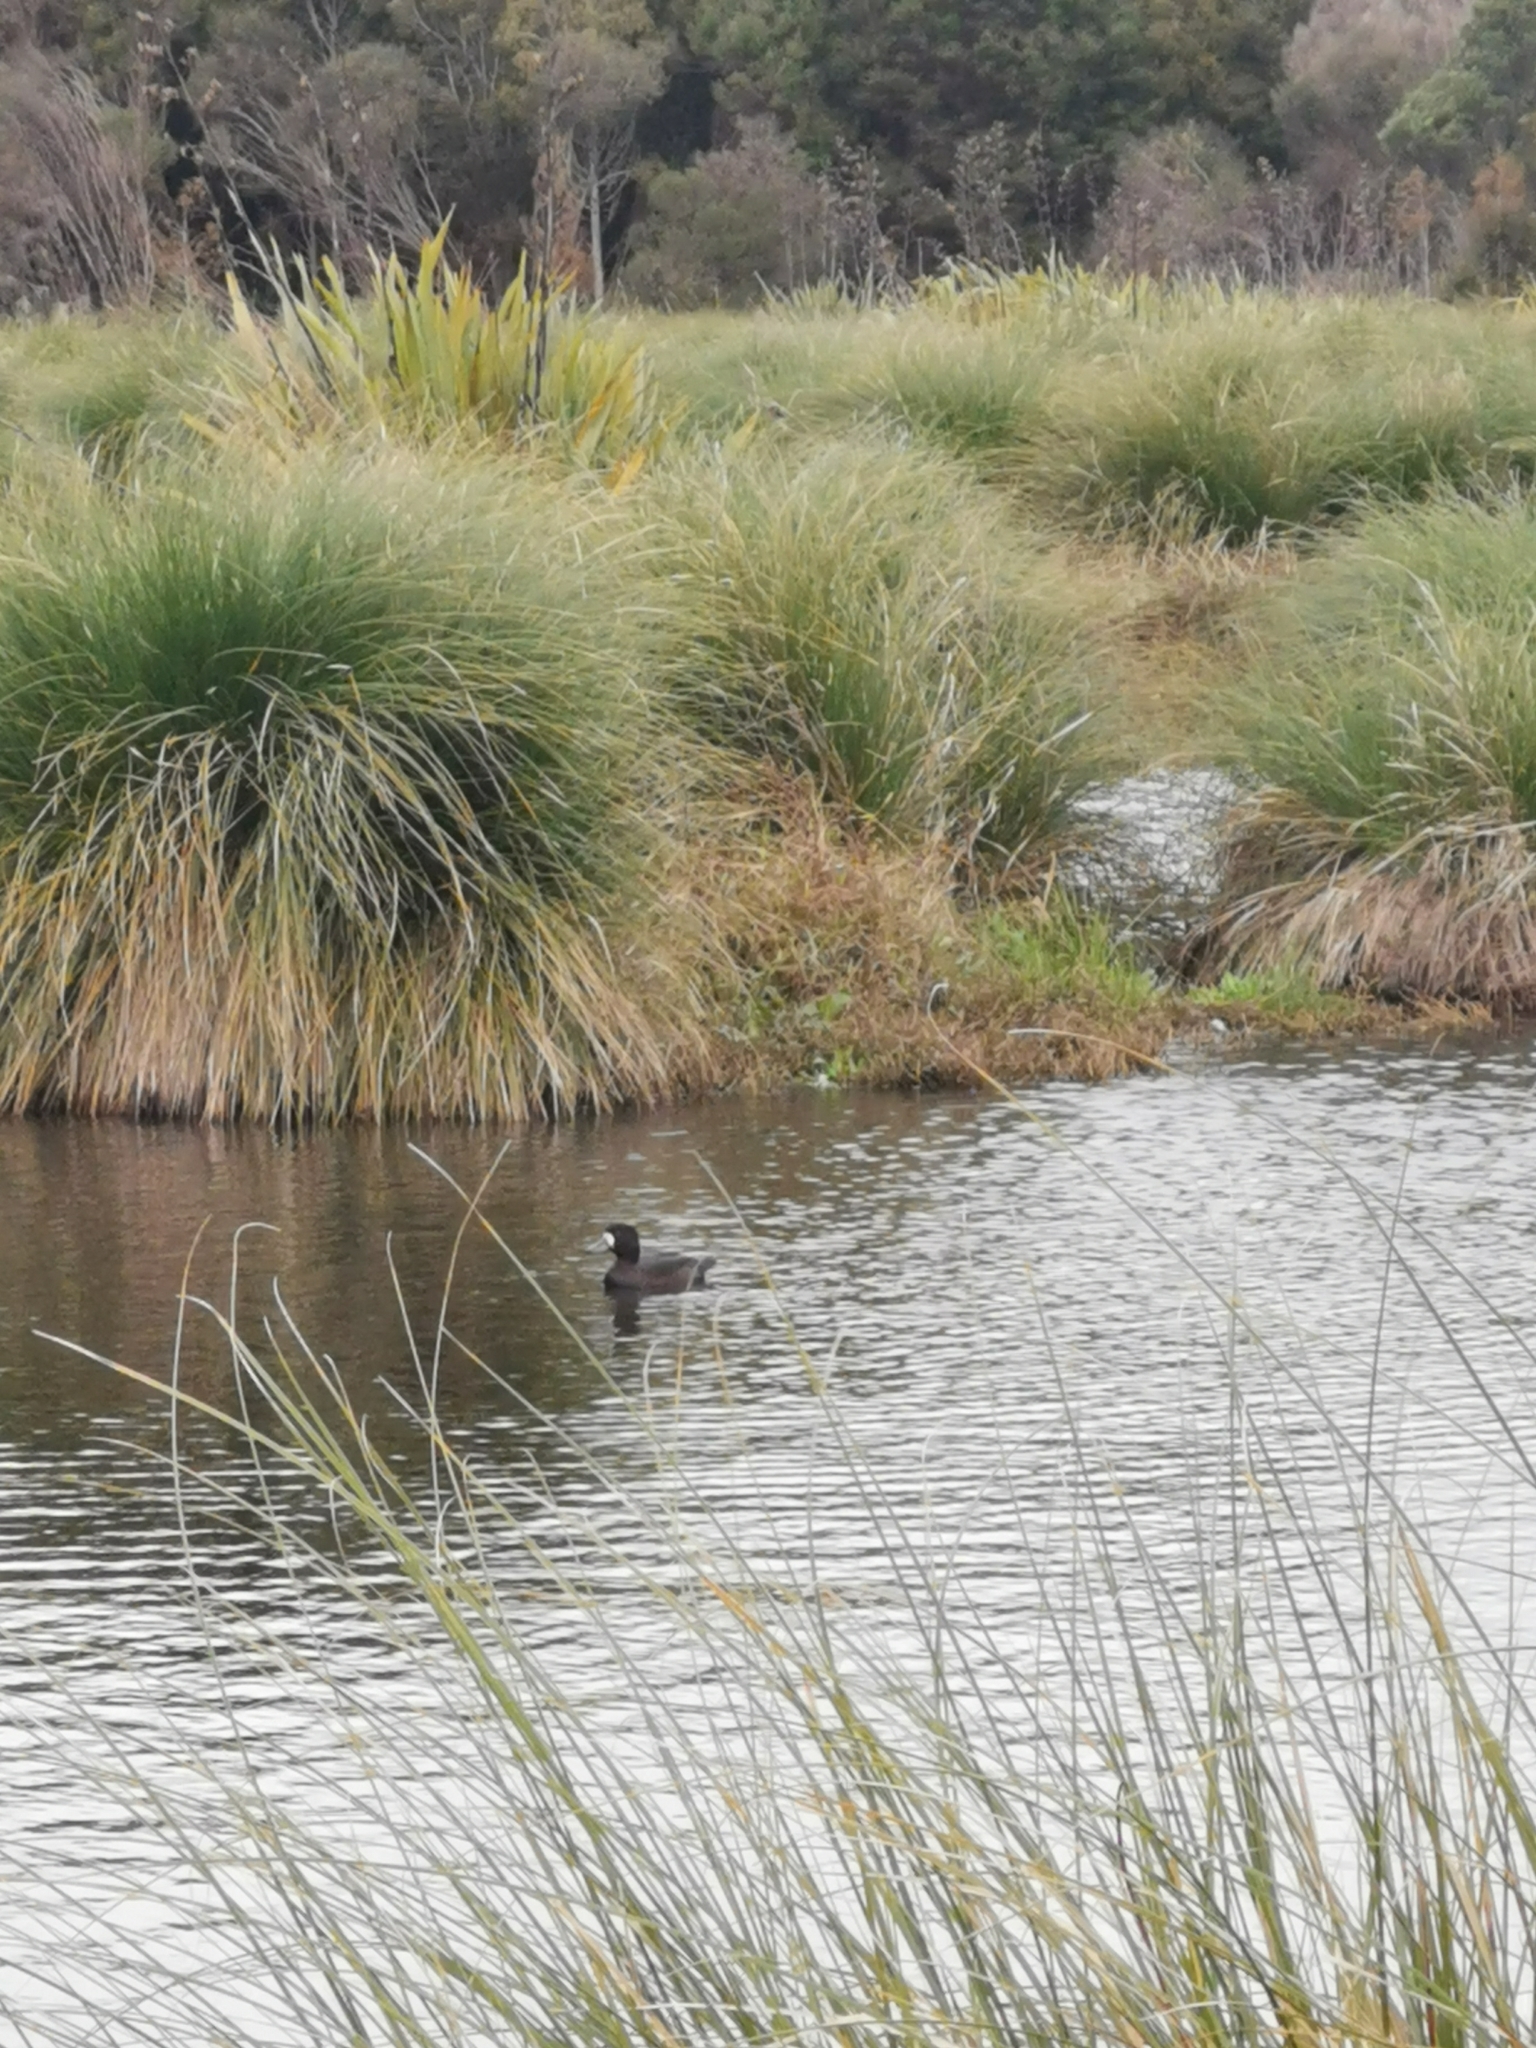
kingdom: Animalia
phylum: Chordata
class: Aves
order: Anseriformes
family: Anatidae
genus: Aythya
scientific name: Aythya novaeseelandiae
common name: New zealand scaup
